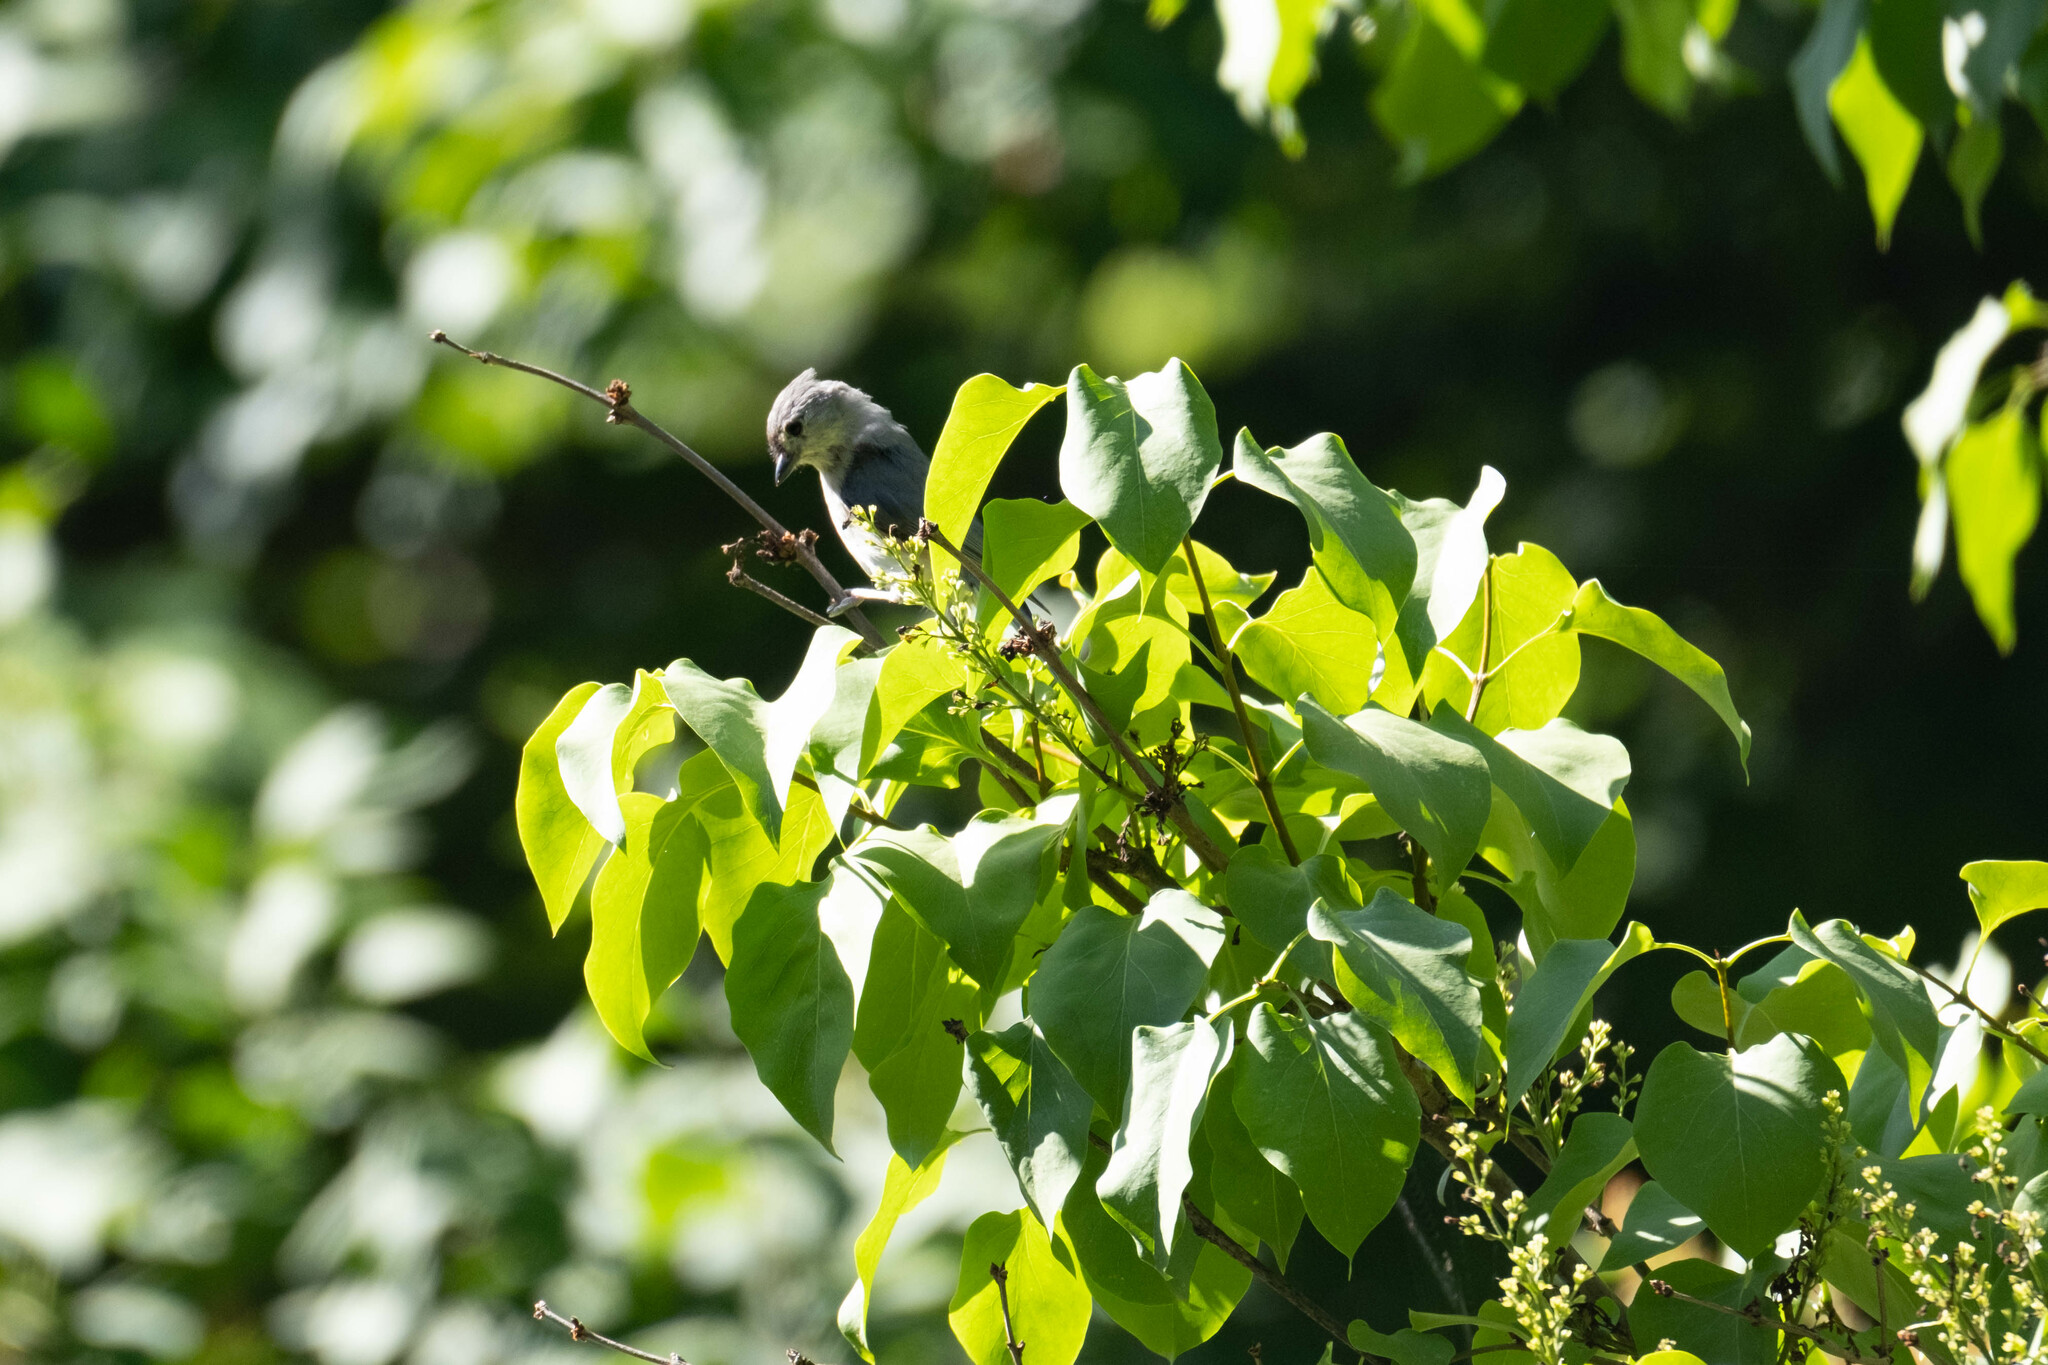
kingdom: Animalia
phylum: Chordata
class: Aves
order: Passeriformes
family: Paridae
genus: Baeolophus
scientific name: Baeolophus bicolor
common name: Tufted titmouse
